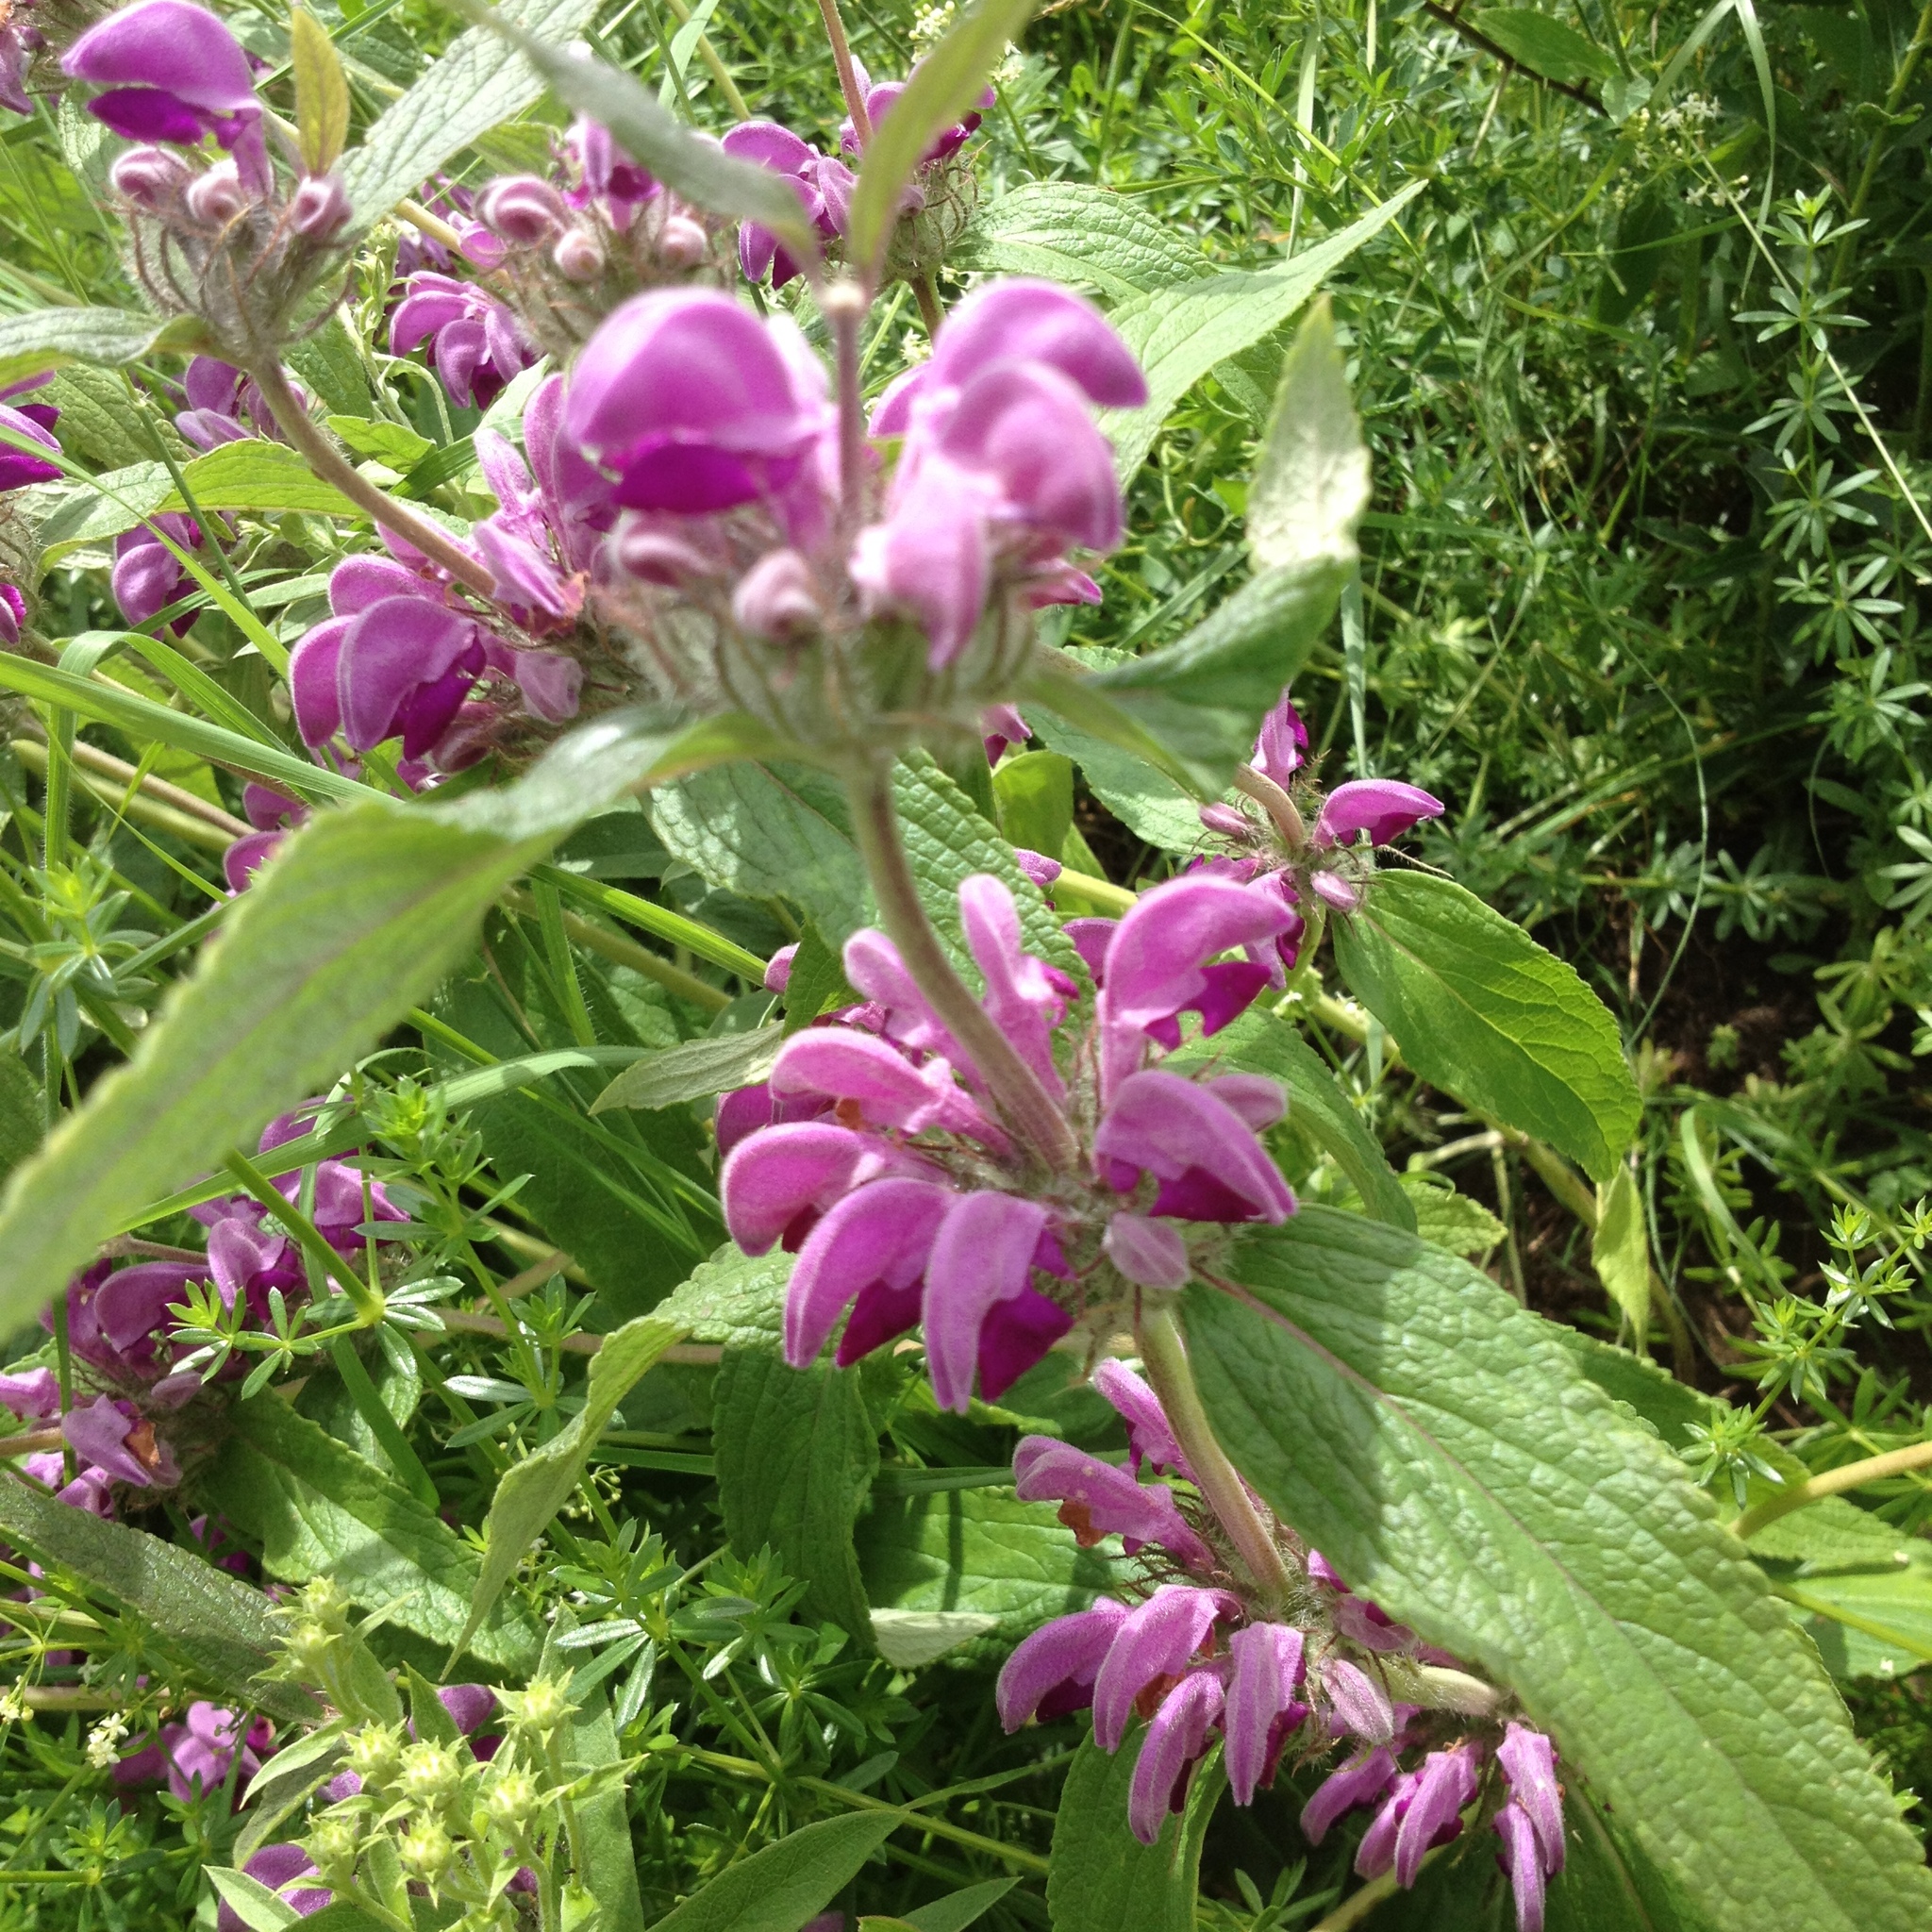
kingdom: Plantae
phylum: Tracheophyta
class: Magnoliopsida
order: Lamiales
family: Lamiaceae
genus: Phlomis
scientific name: Phlomis herba-venti
